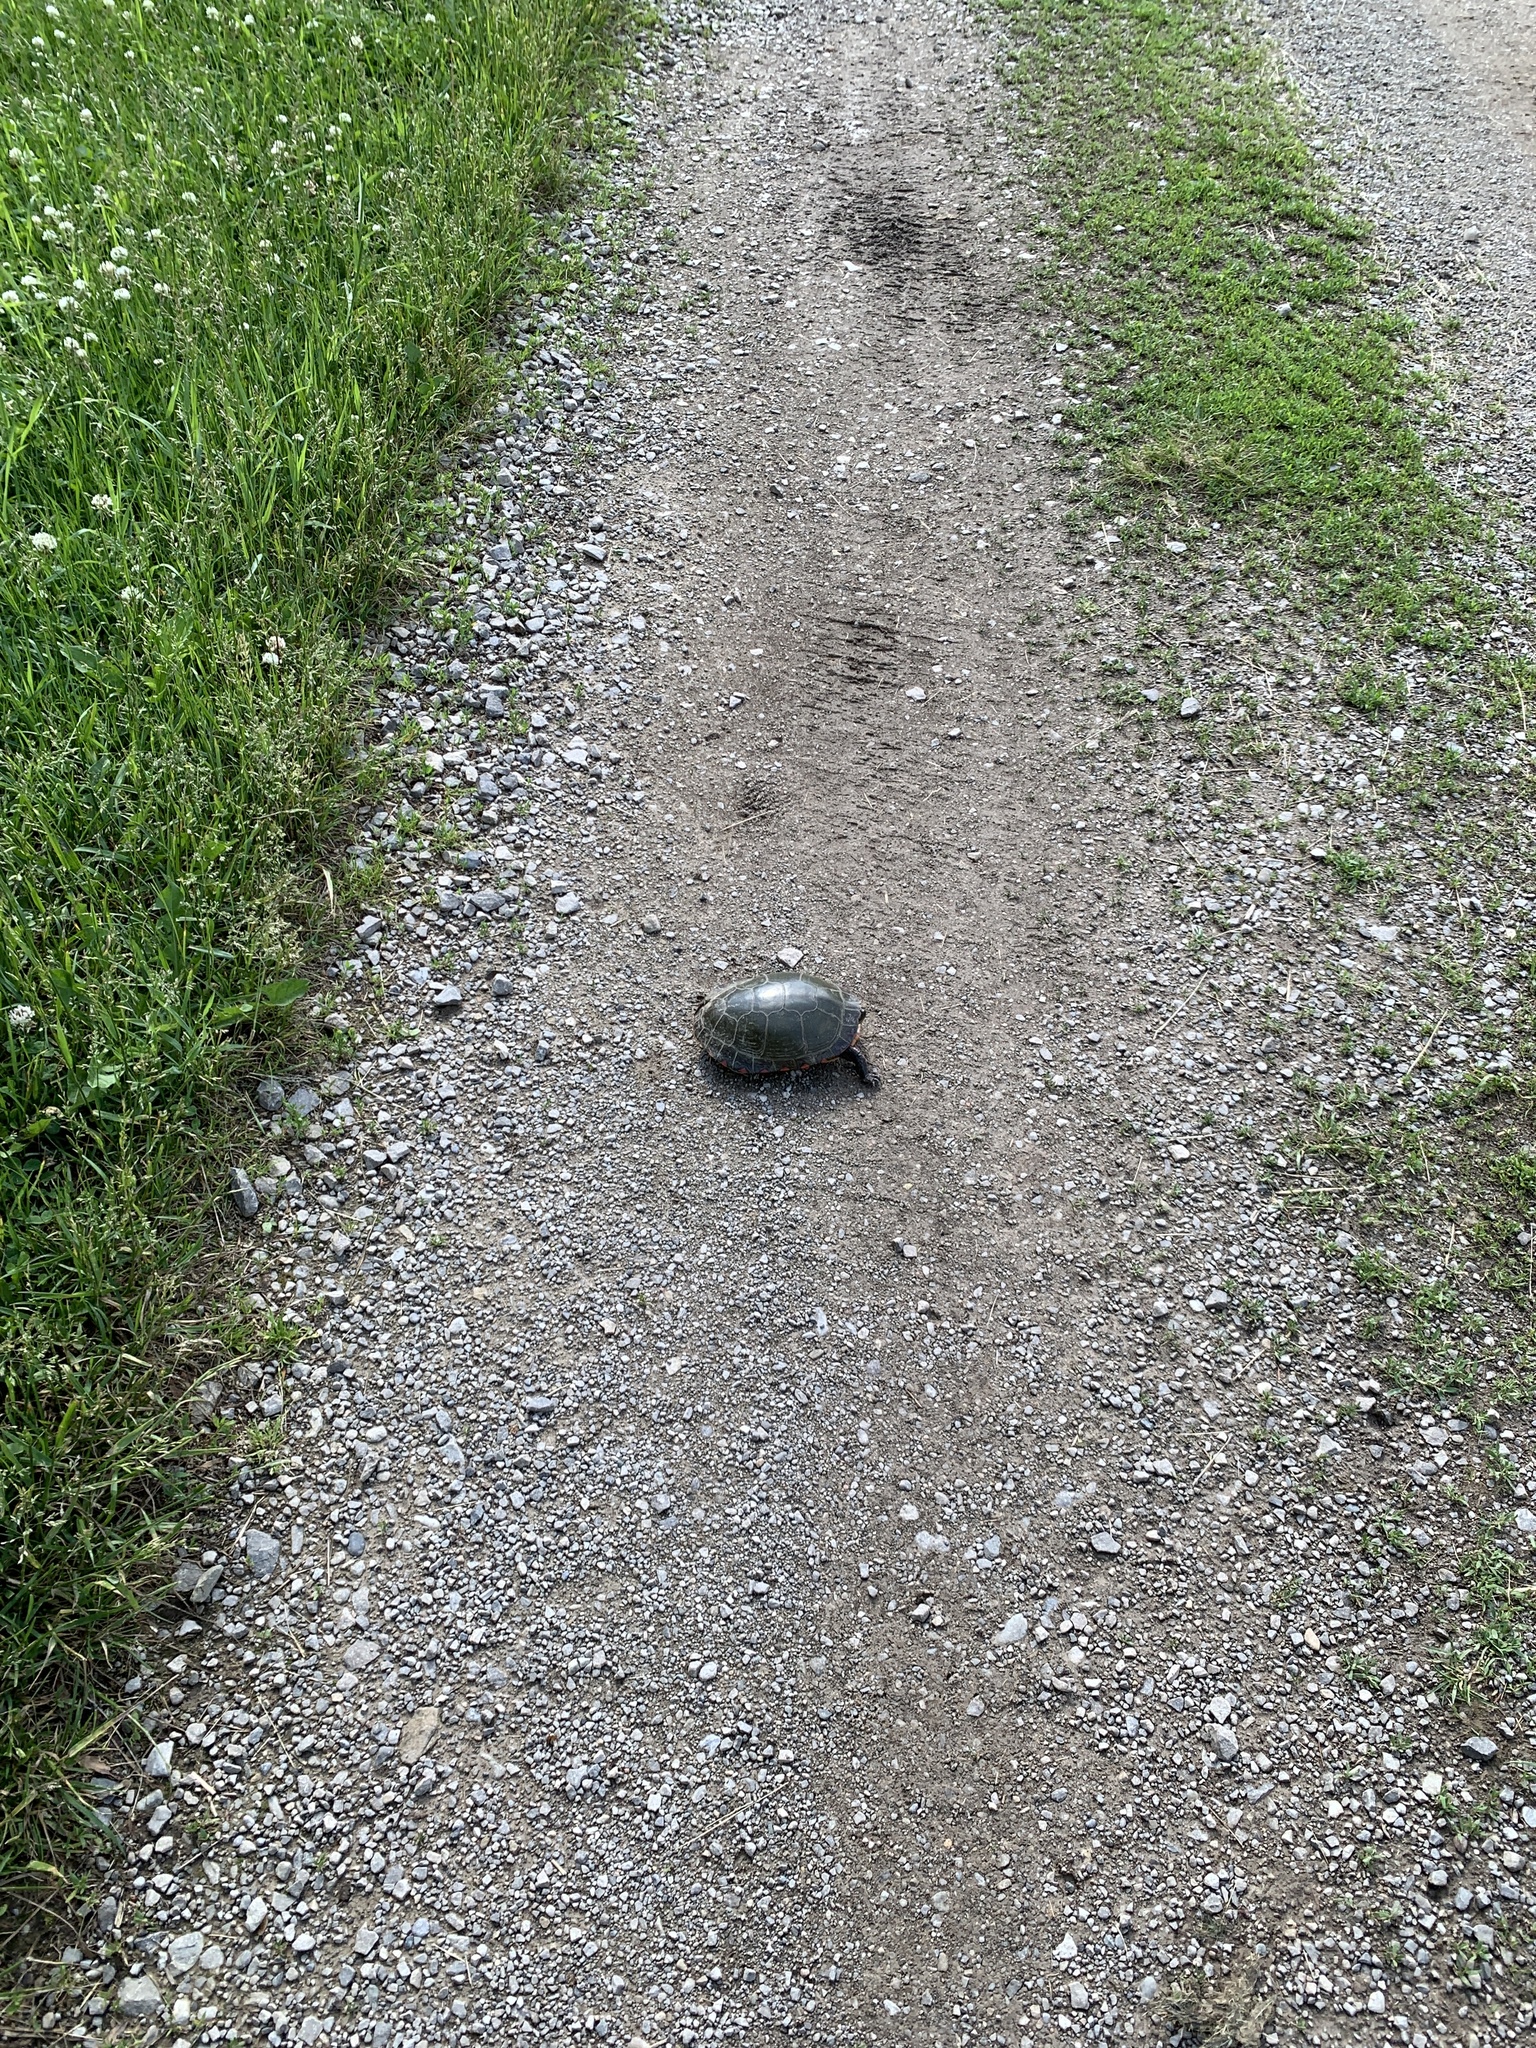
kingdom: Animalia
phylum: Chordata
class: Testudines
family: Emydidae
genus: Chrysemys
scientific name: Chrysemys picta
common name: Painted turtle
